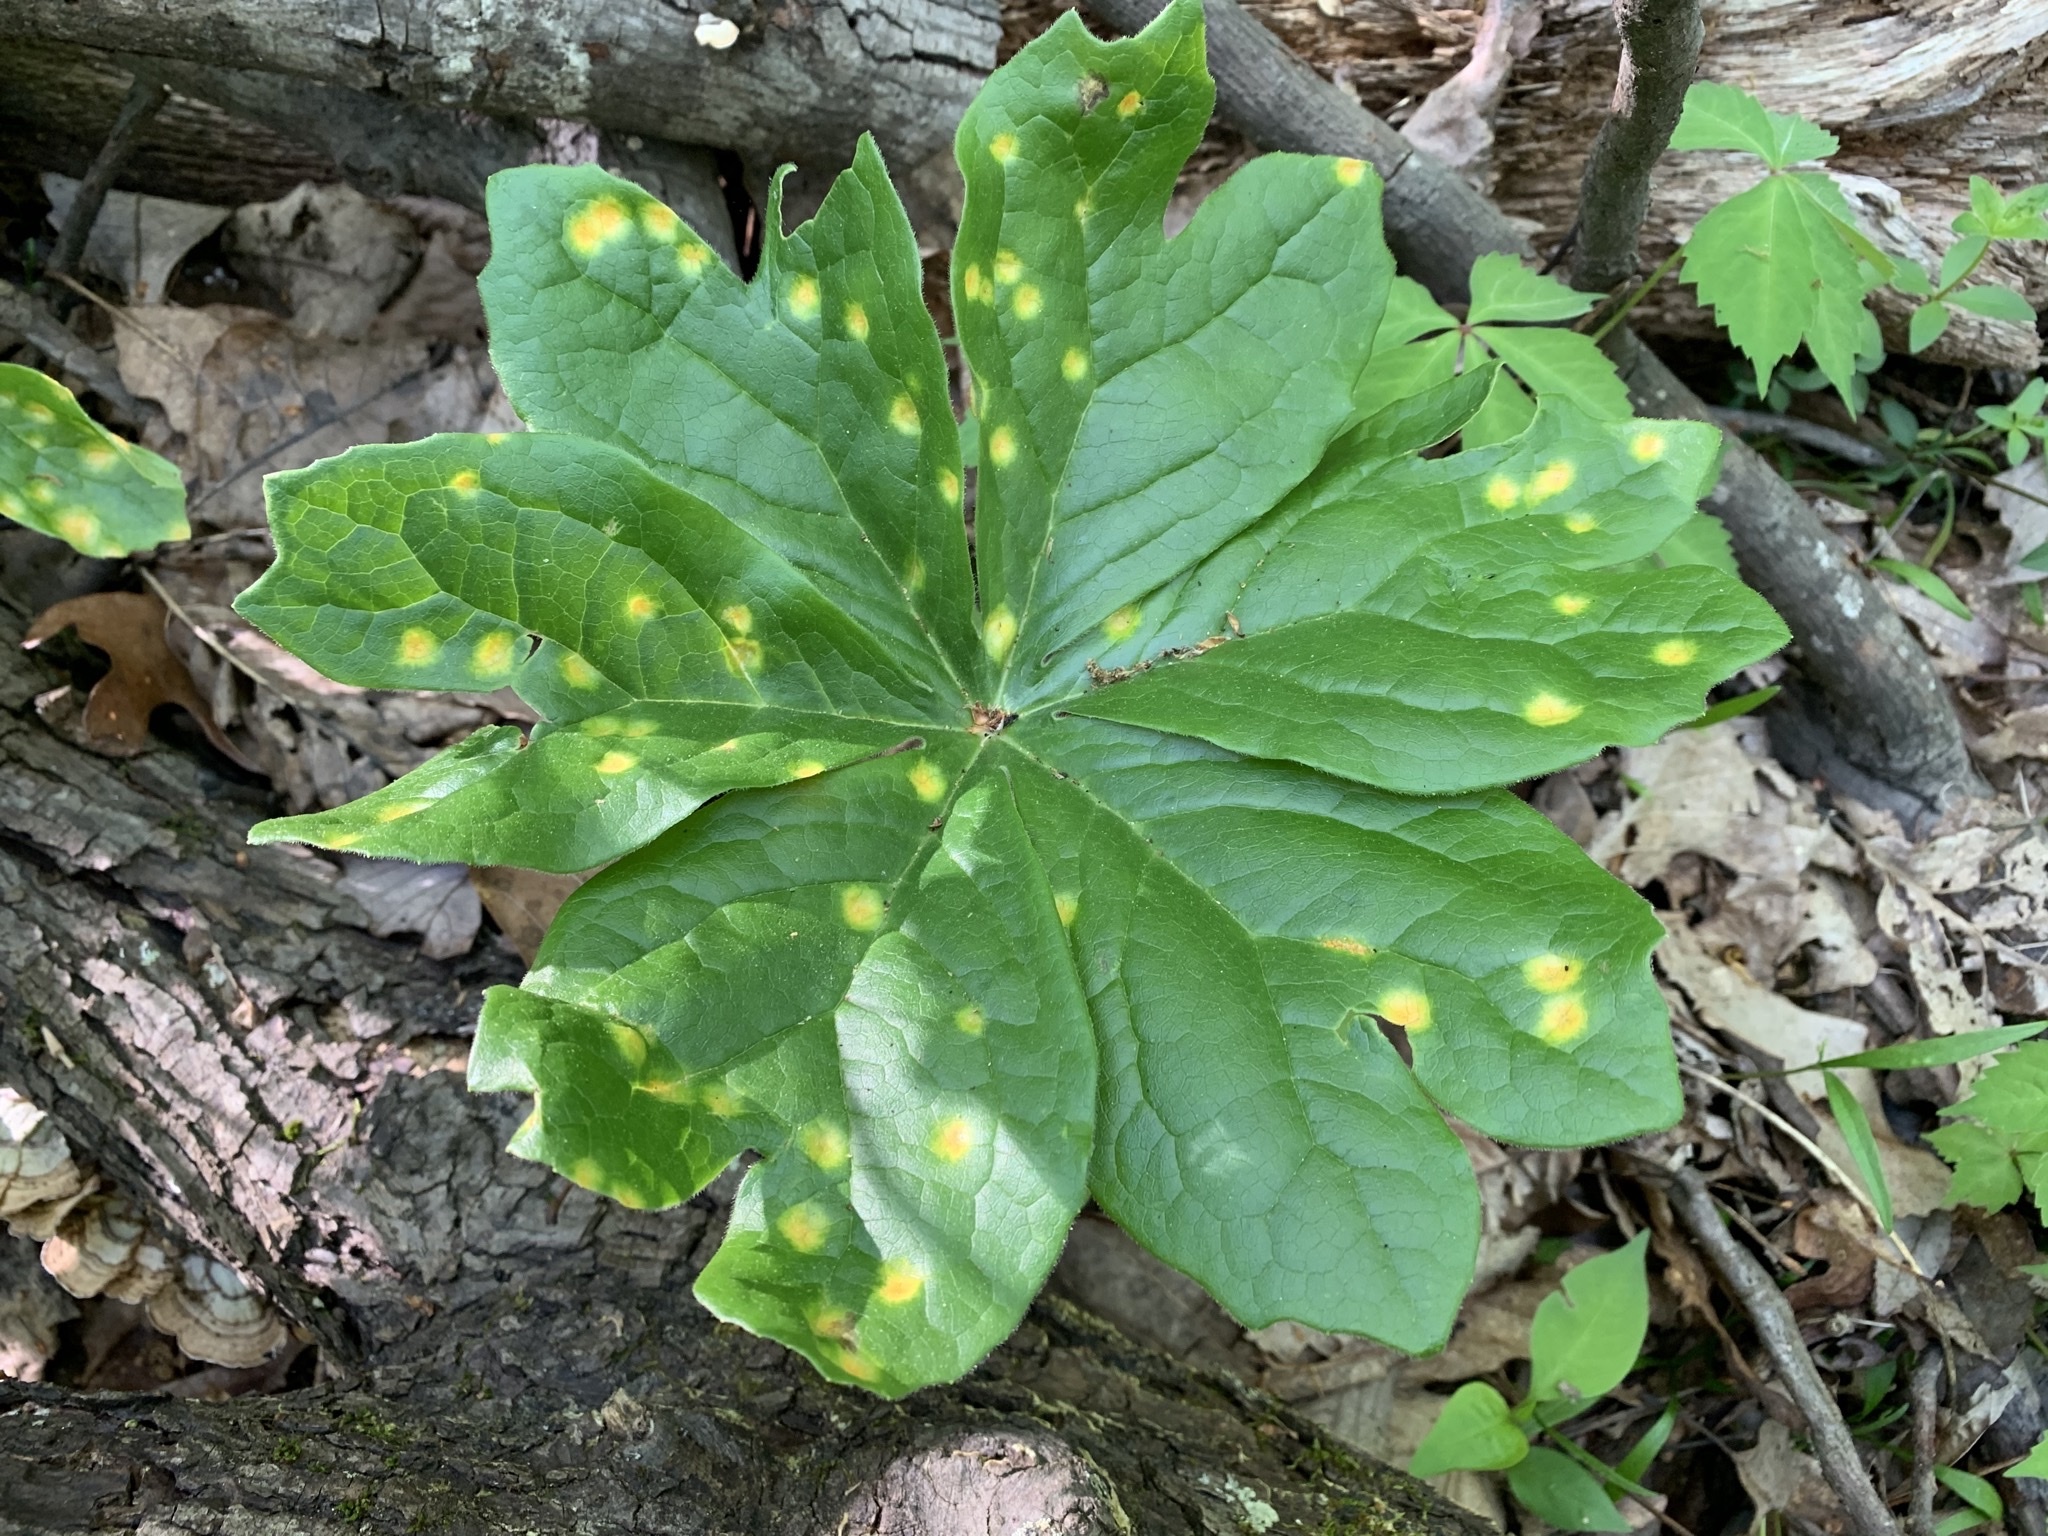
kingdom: Fungi
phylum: Basidiomycota
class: Pucciniomycetes
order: Pucciniales
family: Pucciniaceae
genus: Puccinia
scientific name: Puccinia podophylli
